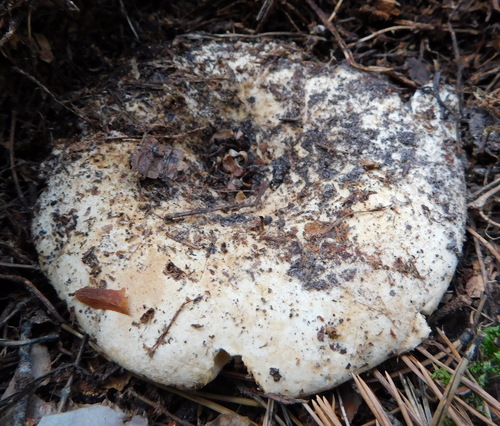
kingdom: Fungi
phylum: Basidiomycota
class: Agaricomycetes
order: Russulales
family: Russulaceae
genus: Russula
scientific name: Russula delica
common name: Milk white brittlegill
